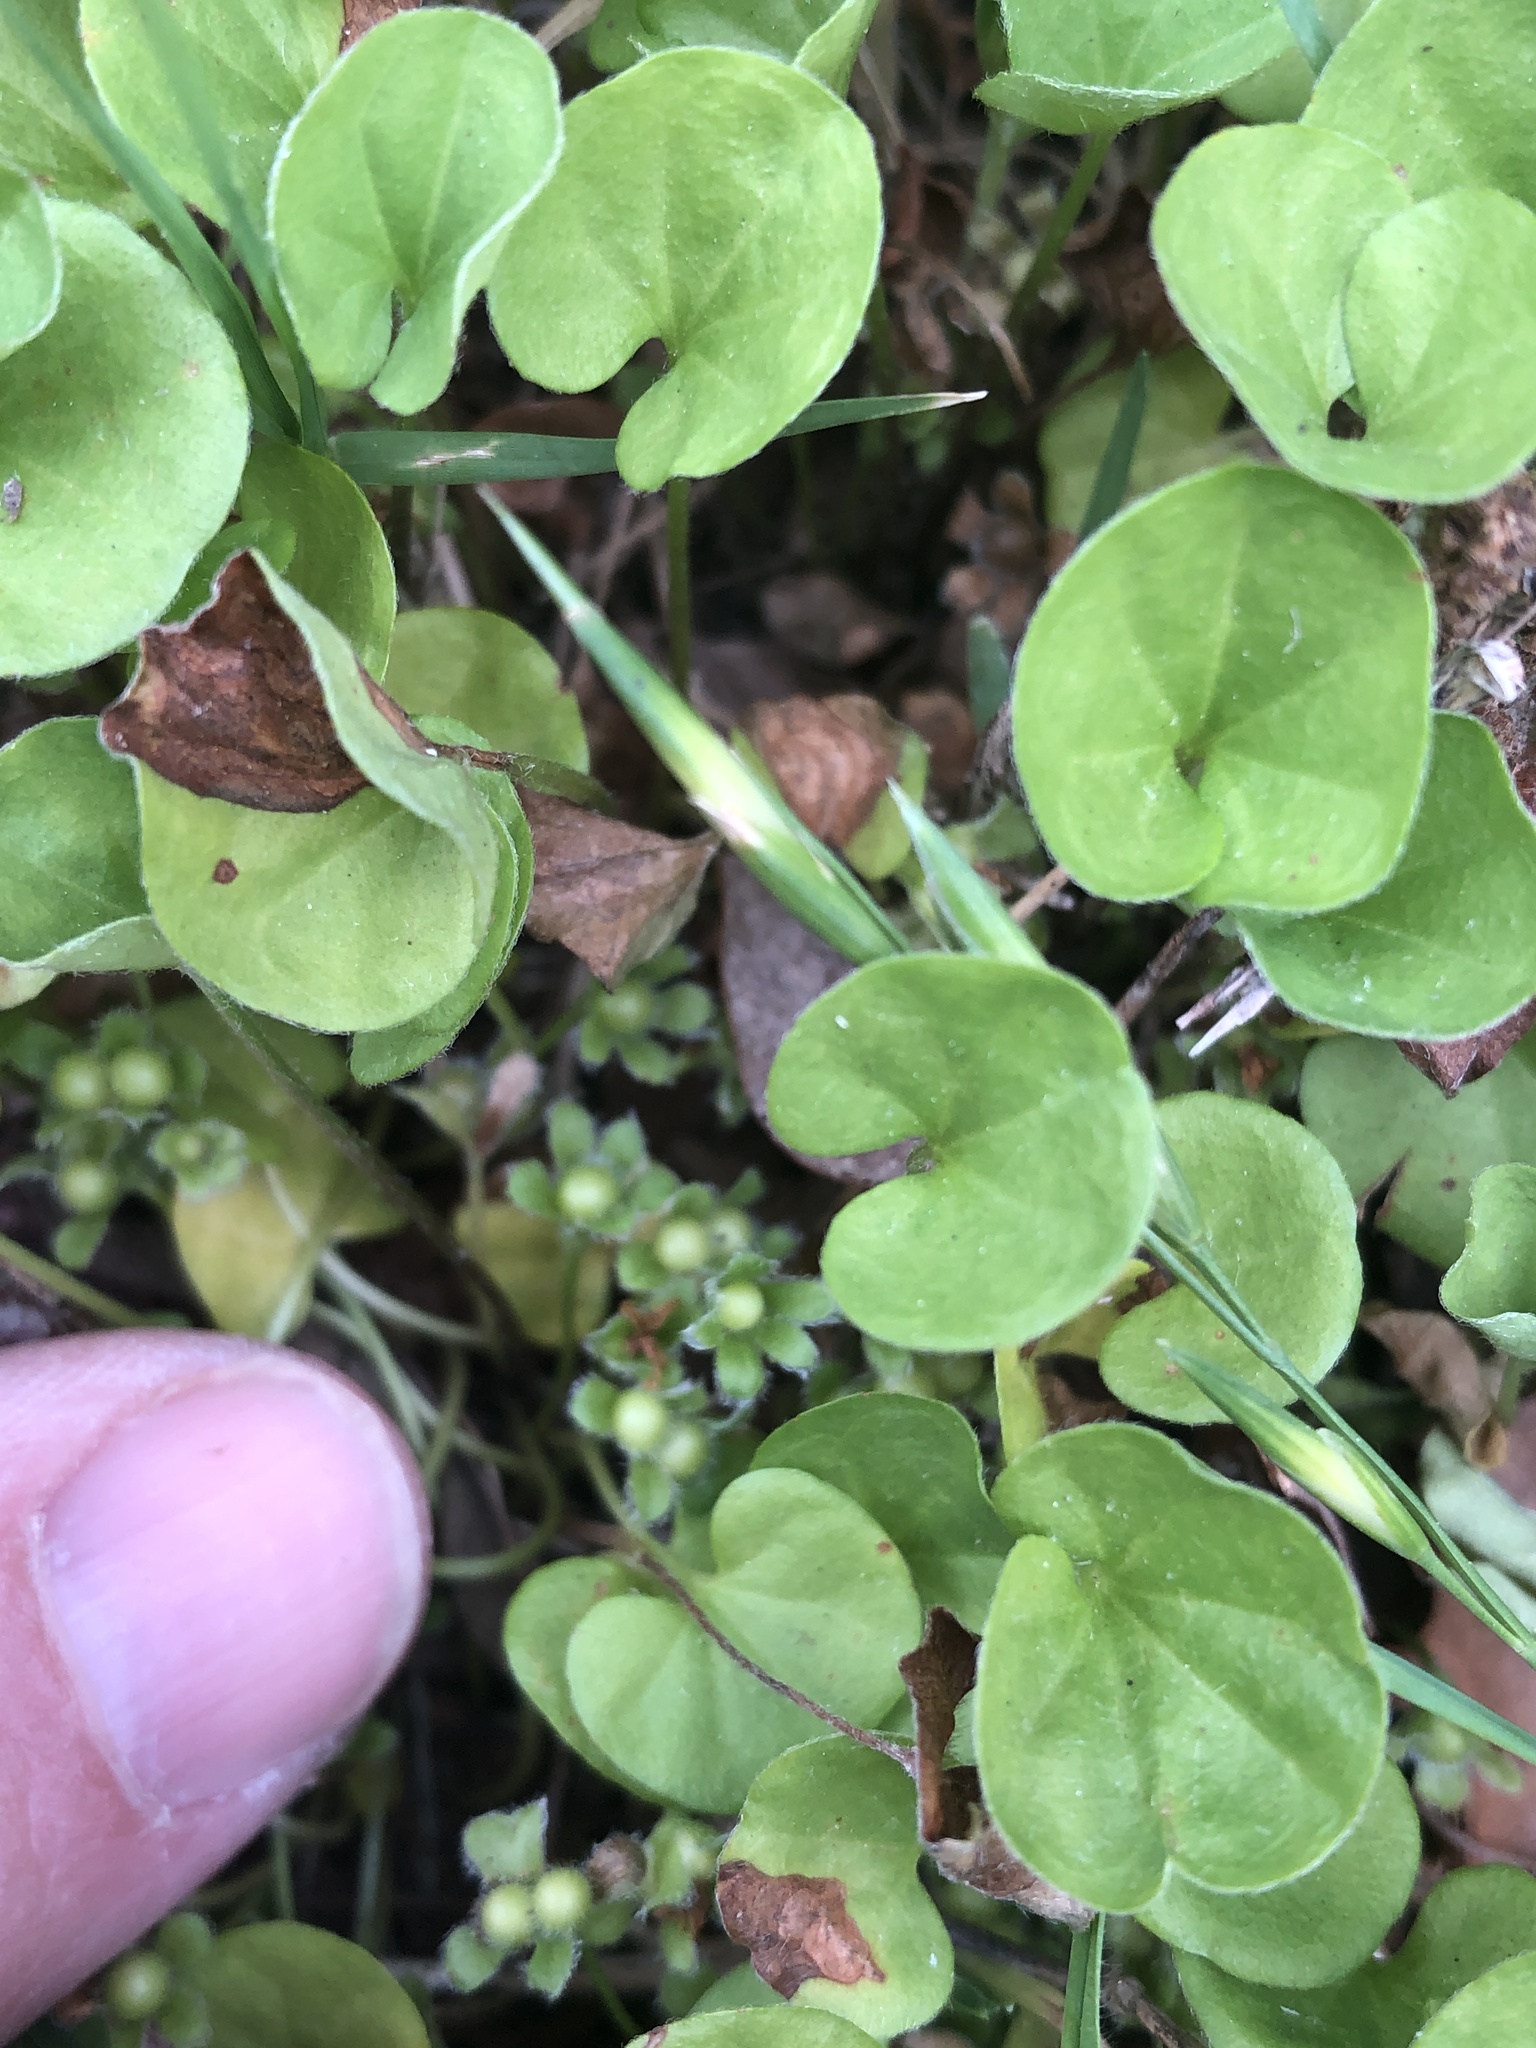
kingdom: Plantae
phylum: Tracheophyta
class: Magnoliopsida
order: Solanales
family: Convolvulaceae
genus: Dichondra
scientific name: Dichondra carolinensis
